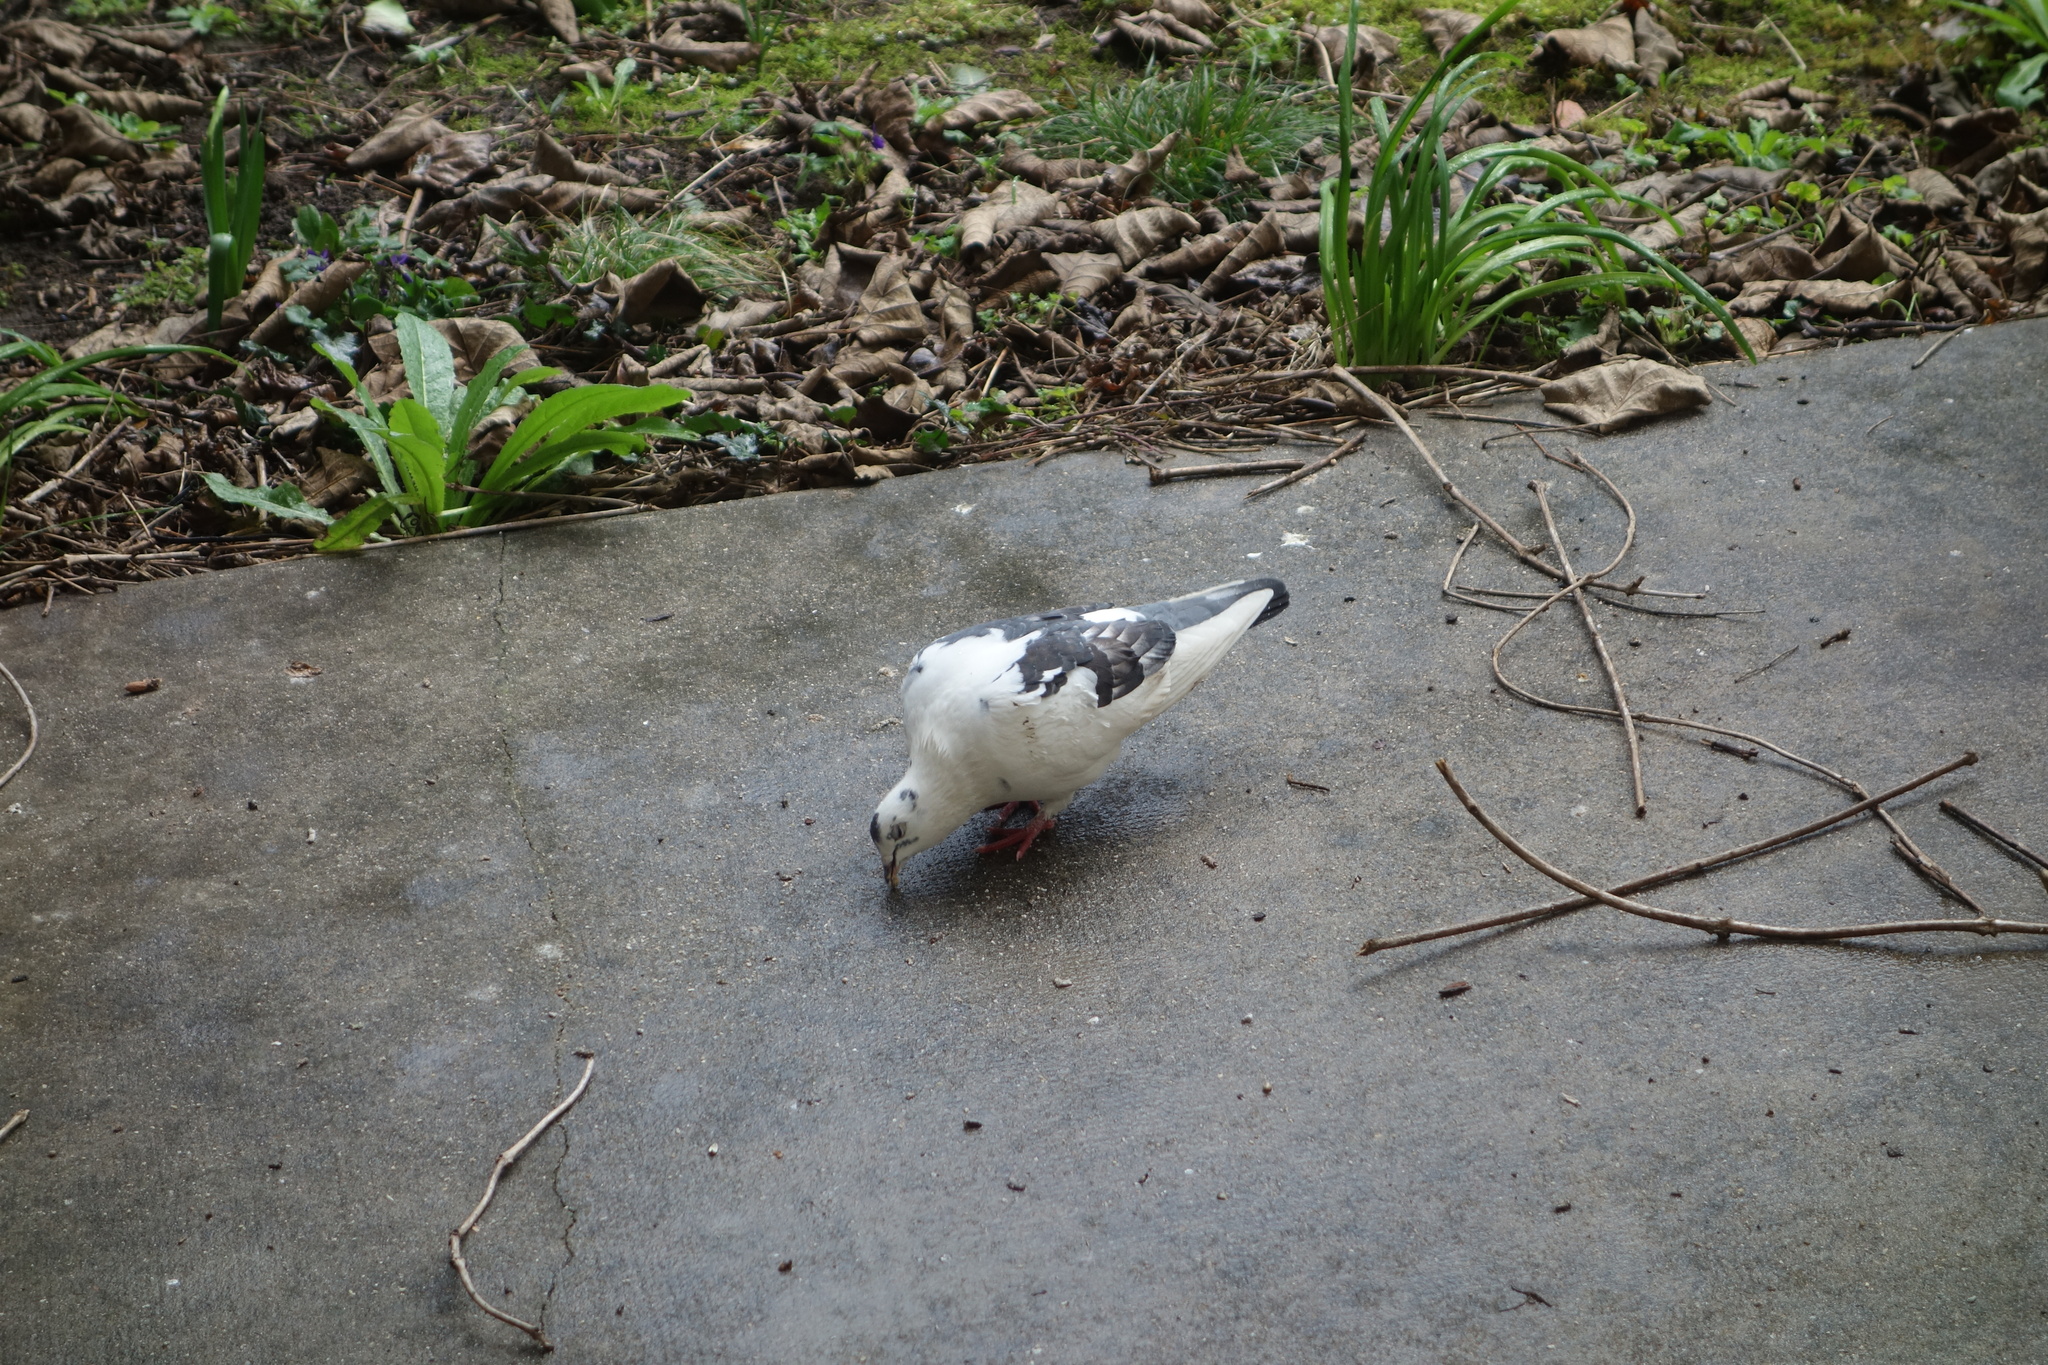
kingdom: Animalia
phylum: Chordata
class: Aves
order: Columbiformes
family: Columbidae
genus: Columba
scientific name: Columba livia
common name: Rock pigeon
